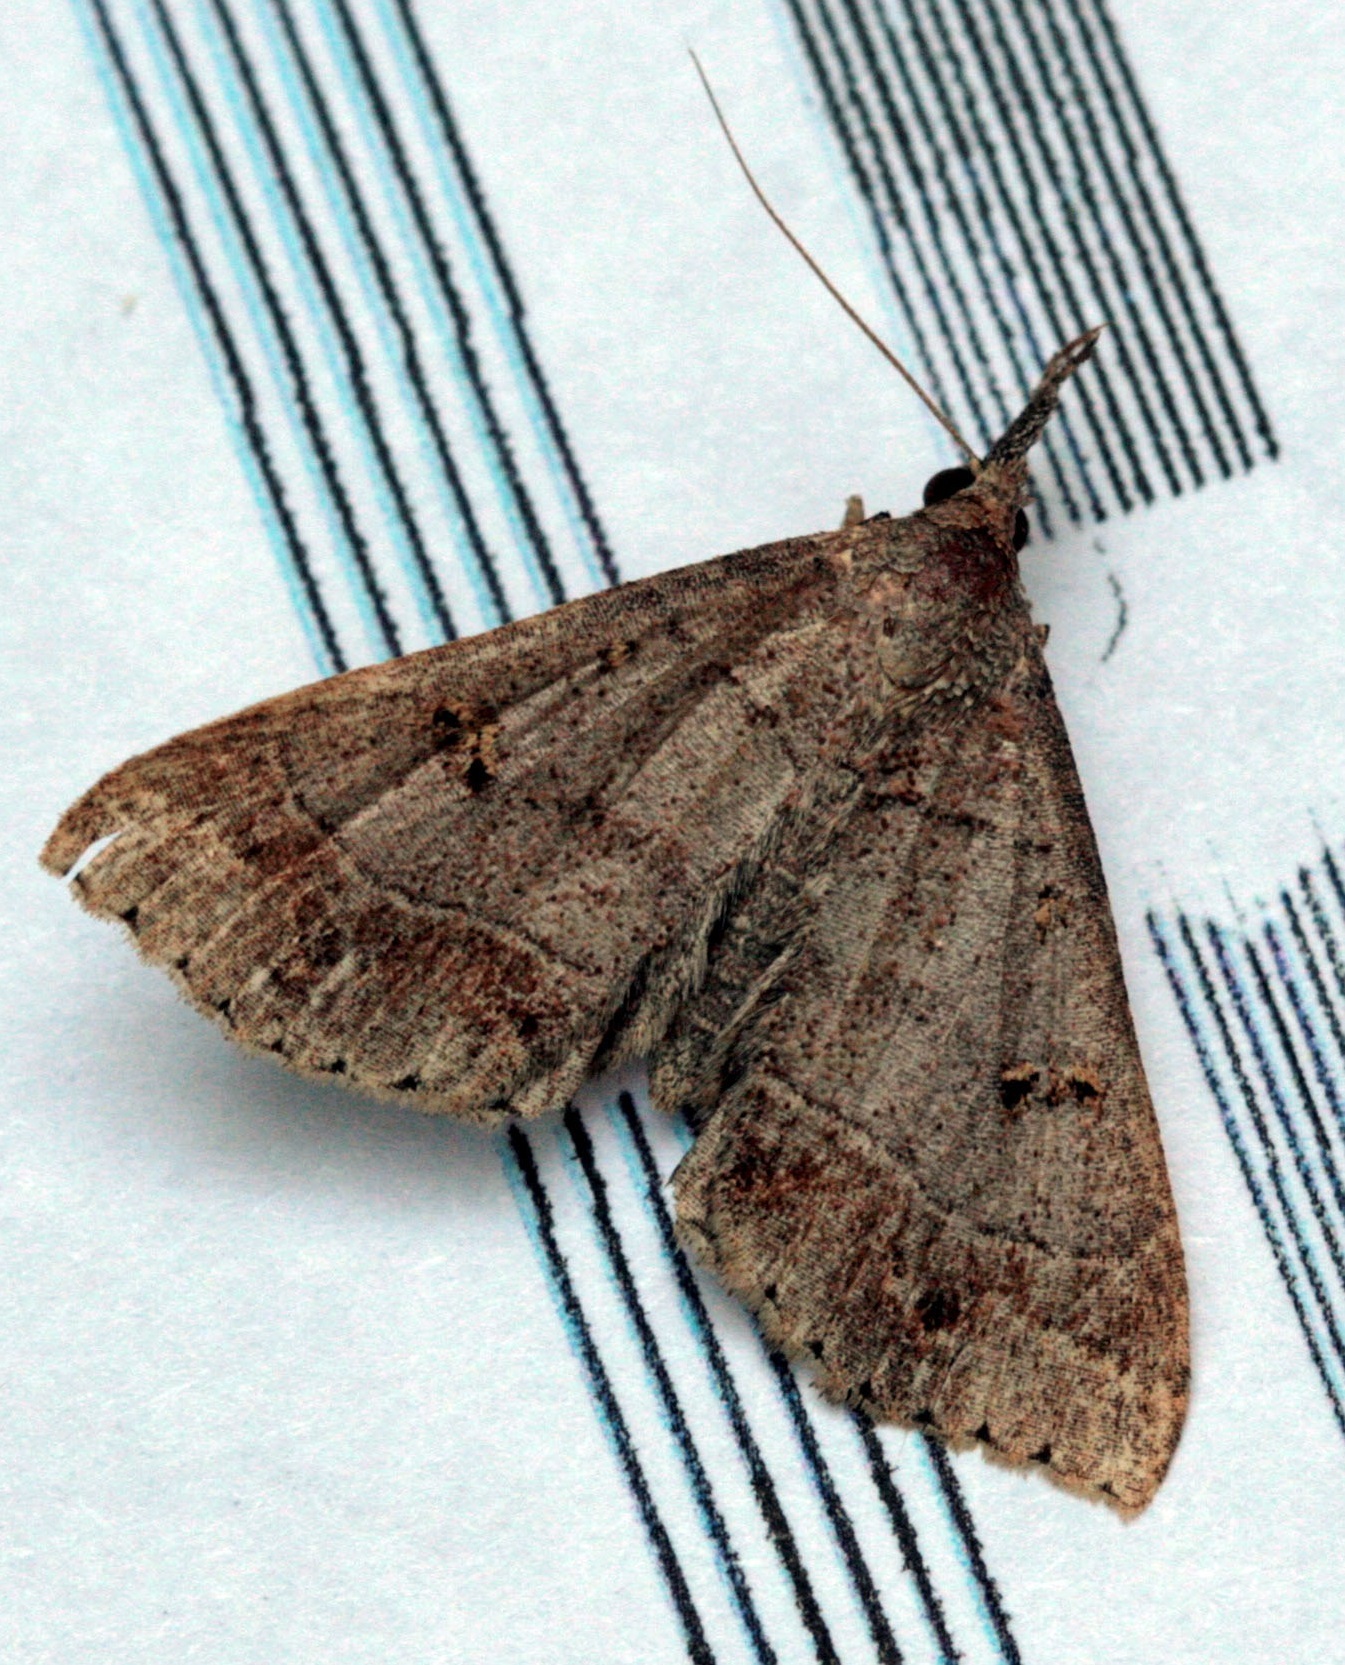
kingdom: Animalia
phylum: Arthropoda
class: Insecta
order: Lepidoptera
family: Erebidae
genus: Renia
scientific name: Renia flavipunctalis
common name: Yellow-spotted renia moth
